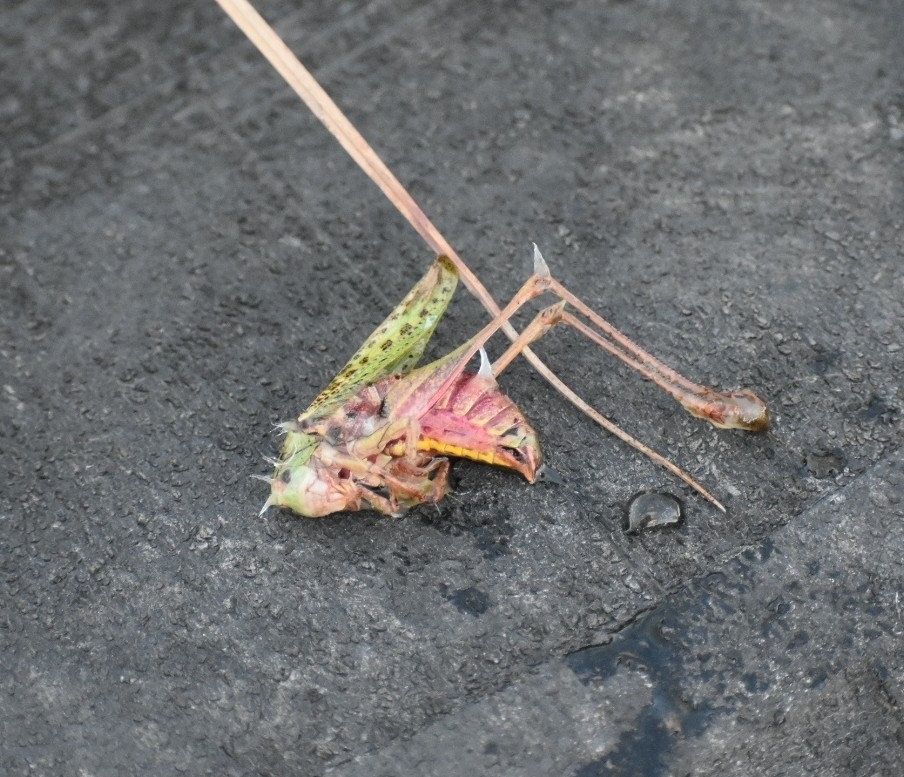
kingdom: Animalia
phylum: Arthropoda
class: Insecta
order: Orthoptera
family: Tettigoniidae
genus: Decticus
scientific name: Decticus verrucivorus
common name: Wart-biter
